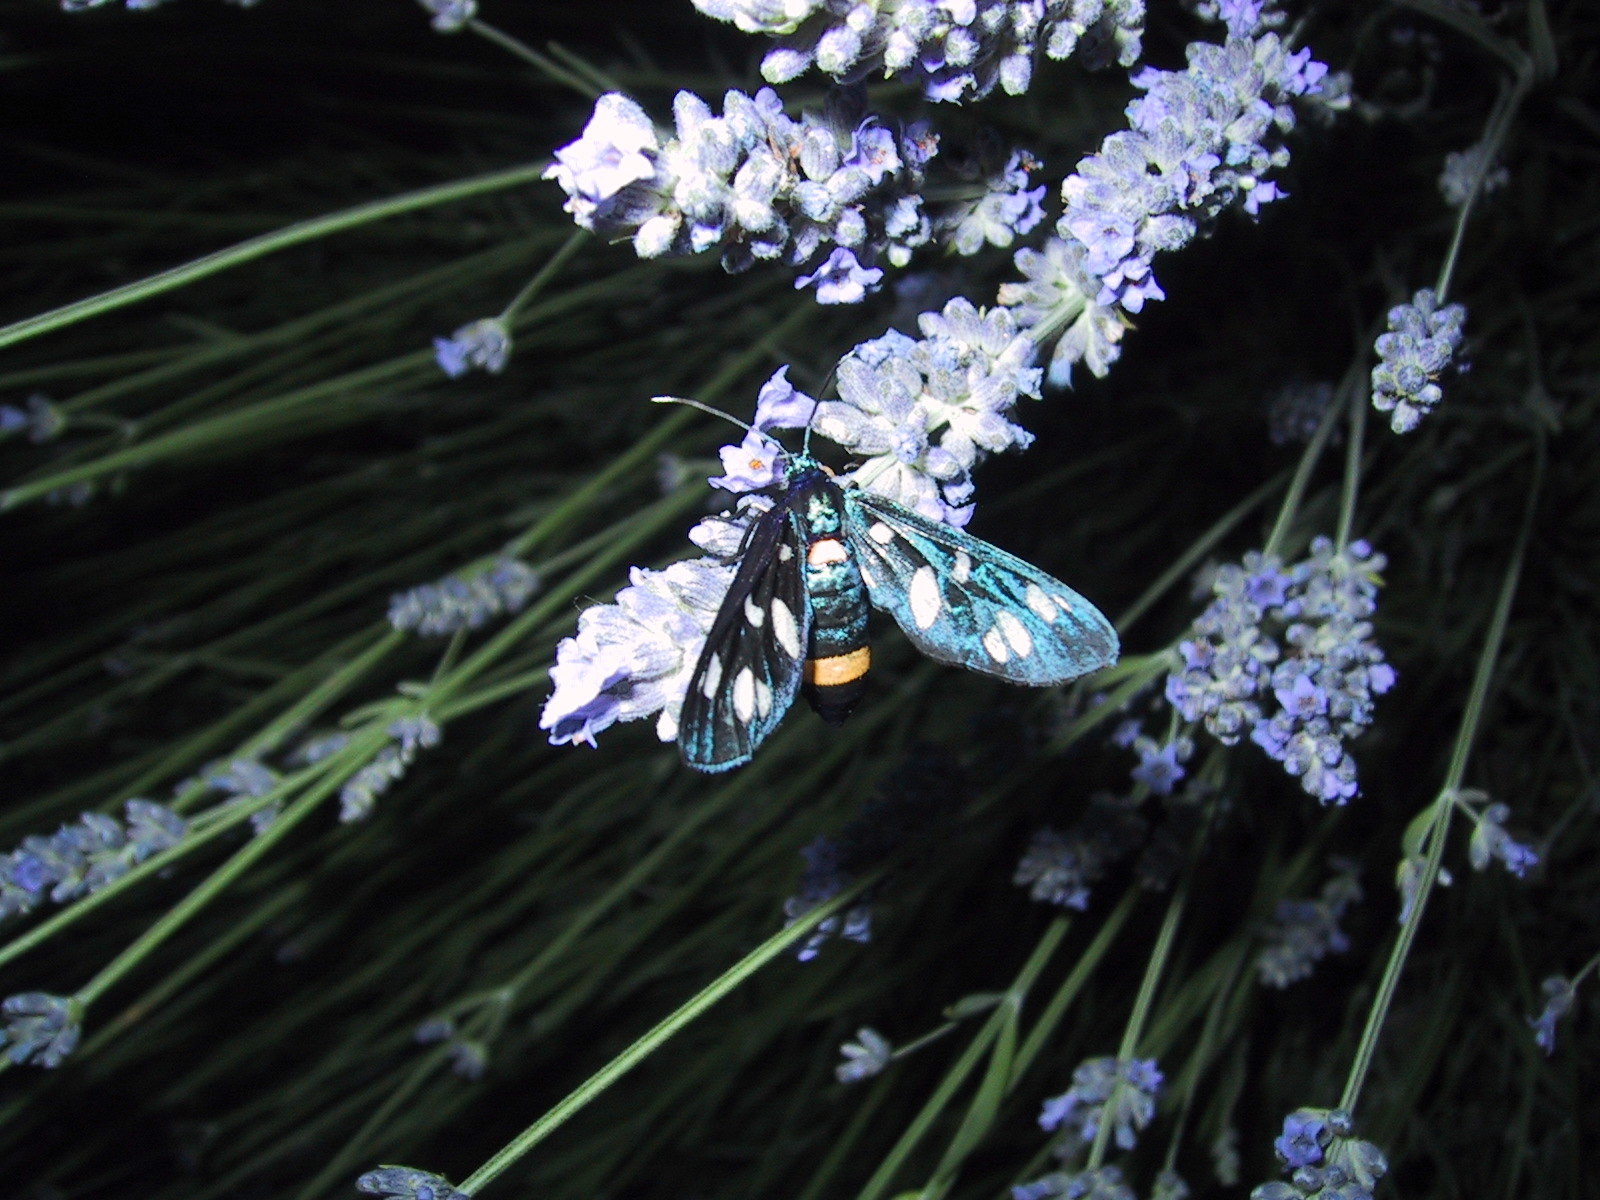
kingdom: Animalia
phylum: Arthropoda
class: Insecta
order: Lepidoptera
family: Erebidae
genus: Amata
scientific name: Amata phegea
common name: Nine-spotted
